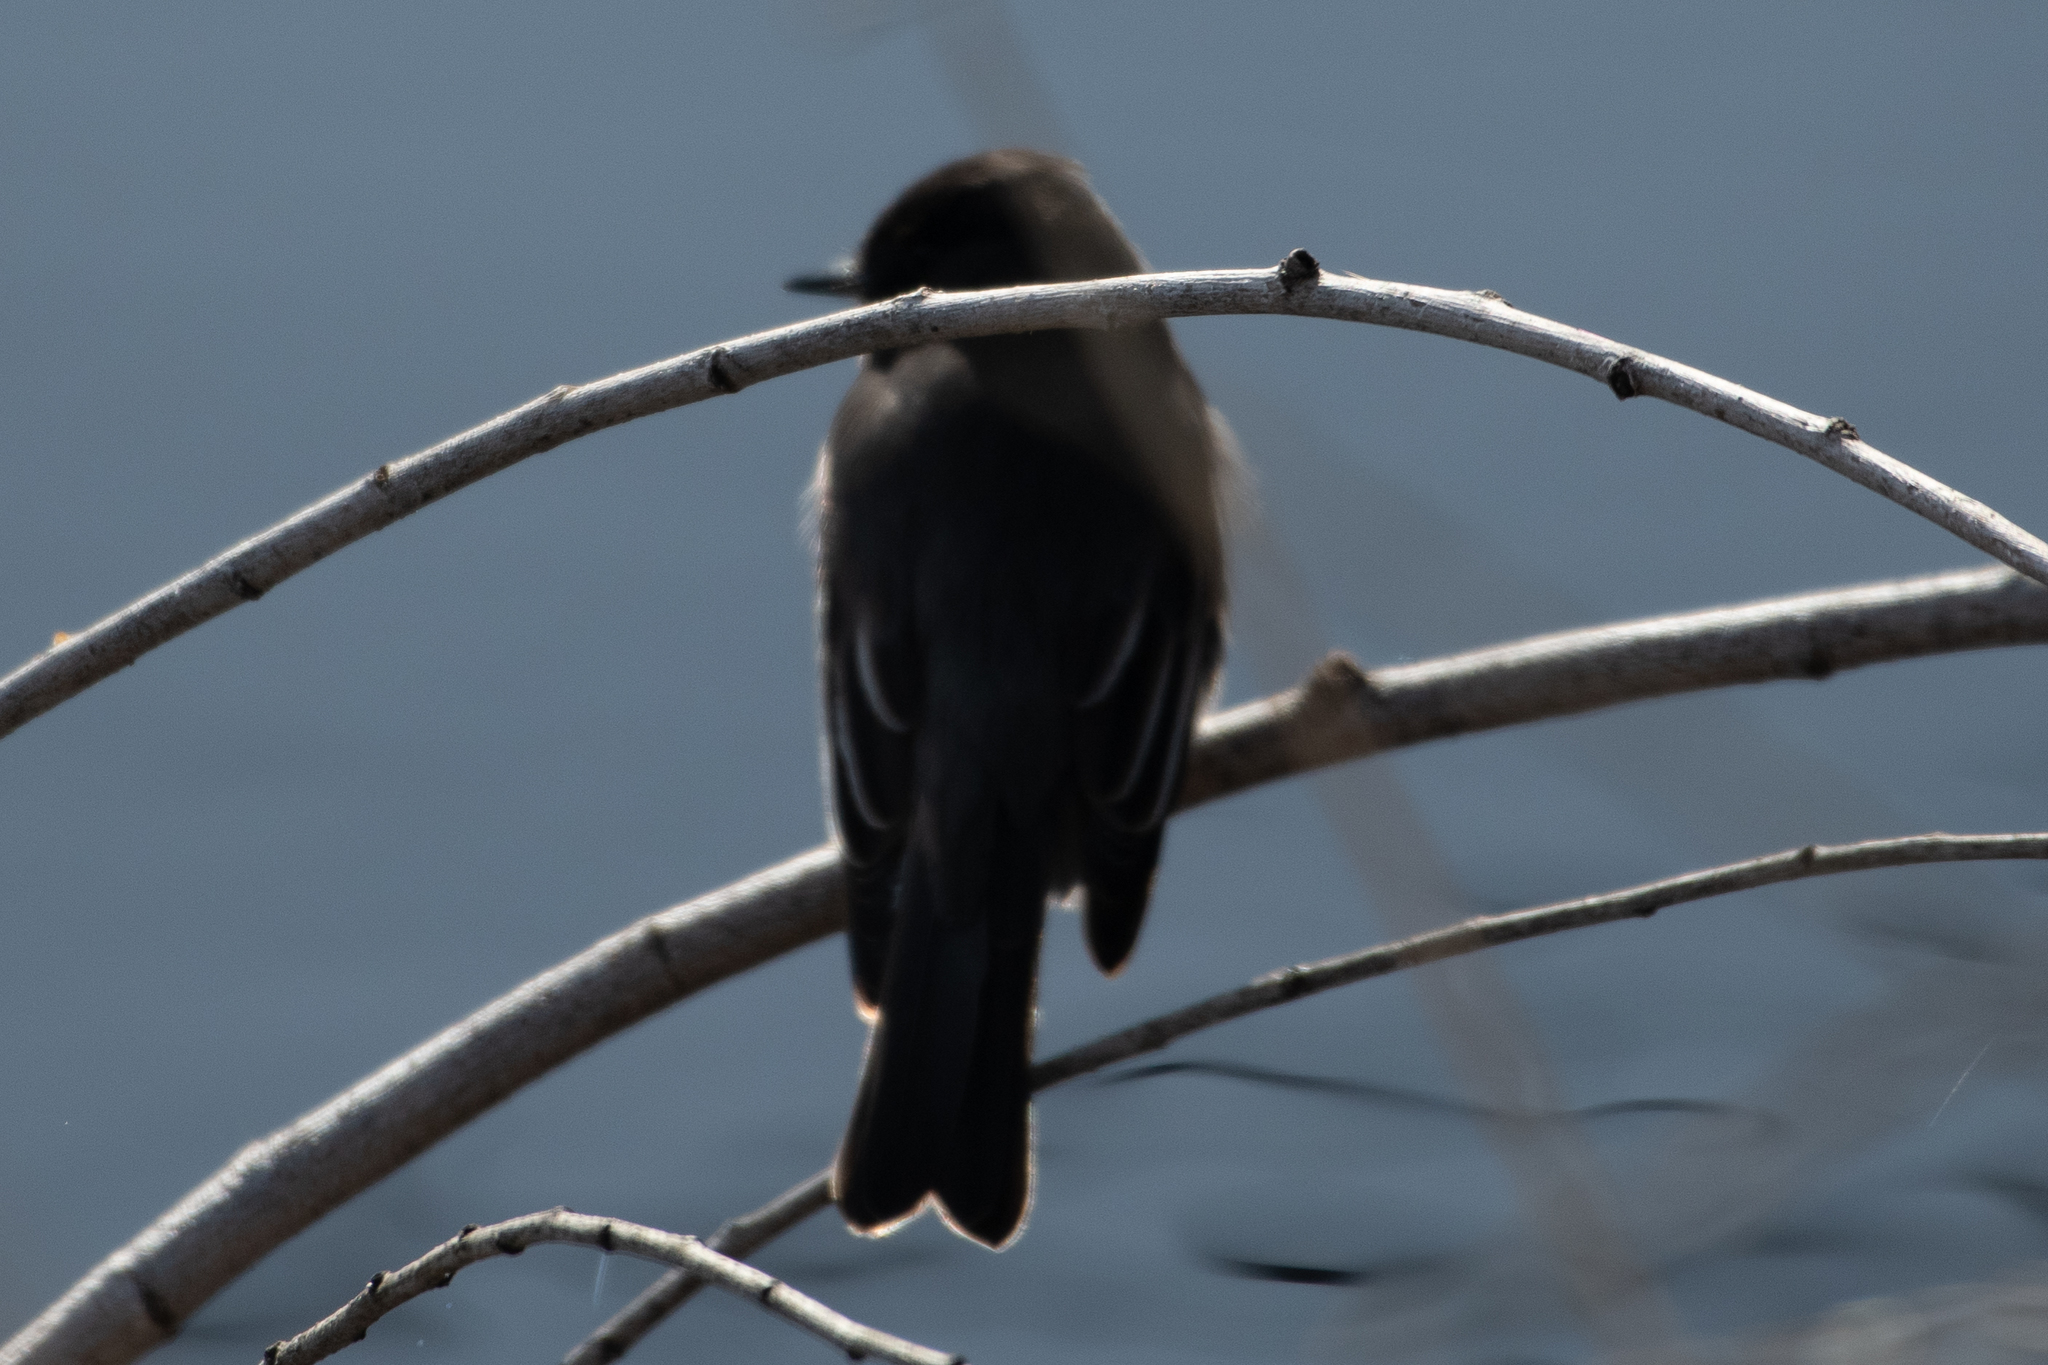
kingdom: Animalia
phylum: Chordata
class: Aves
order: Passeriformes
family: Tyrannidae
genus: Sayornis
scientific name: Sayornis nigricans
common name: Black phoebe
